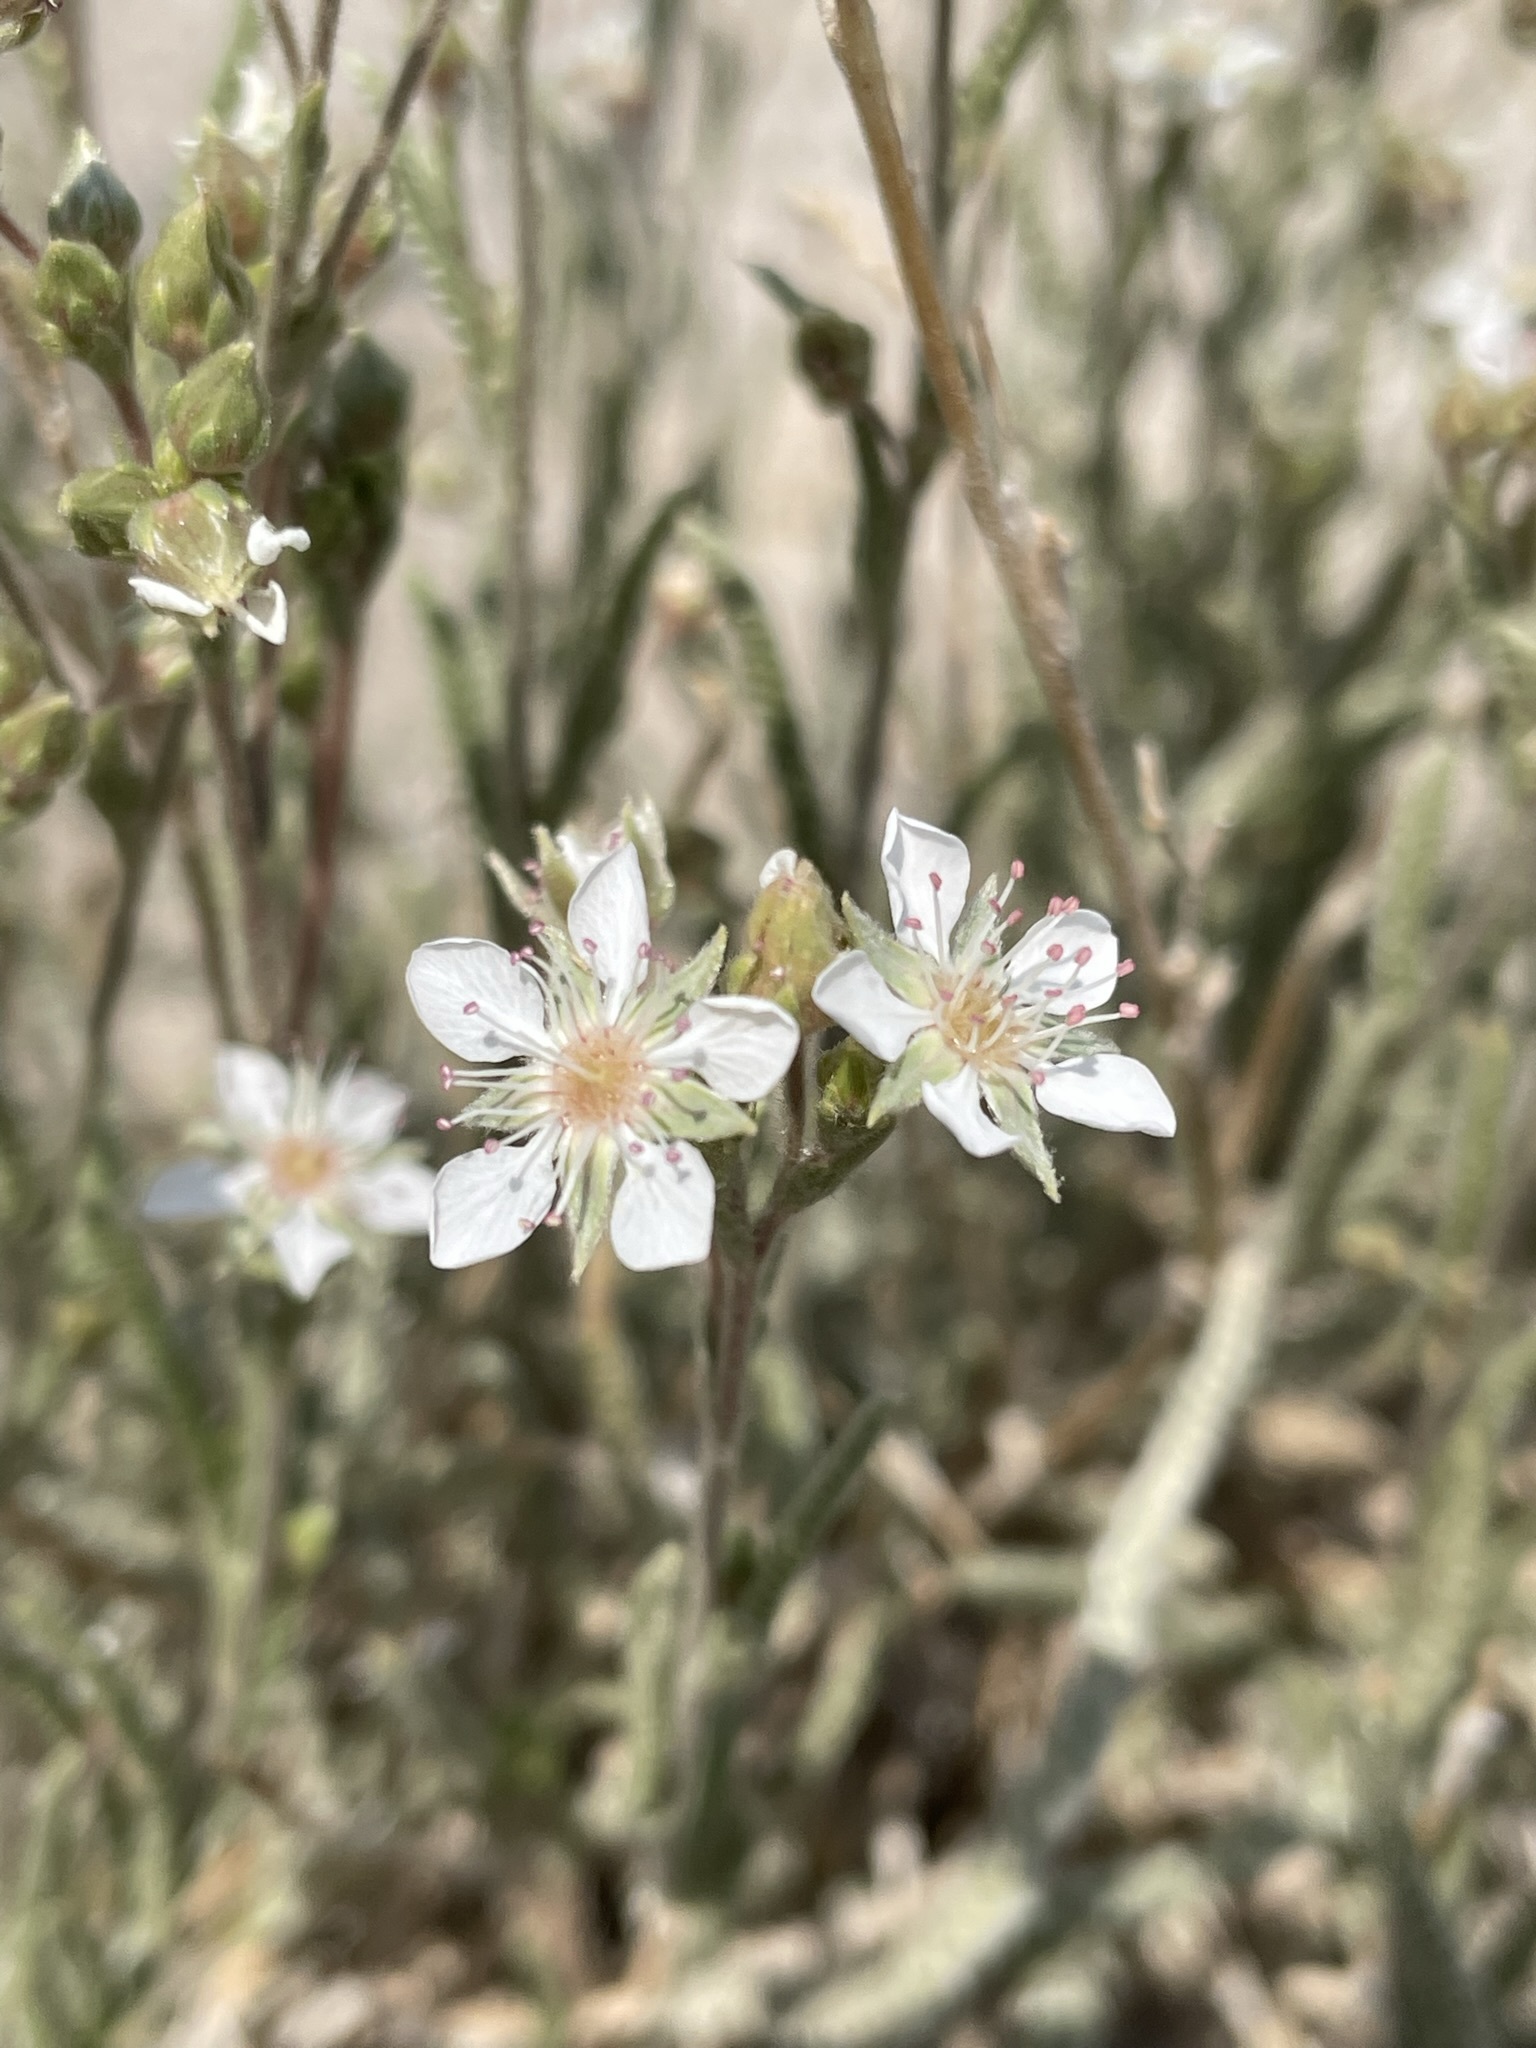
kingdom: Plantae
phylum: Tracheophyta
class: Magnoliopsida
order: Rosales
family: Rosaceae
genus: Potentilla
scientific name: Potentilla kingii
